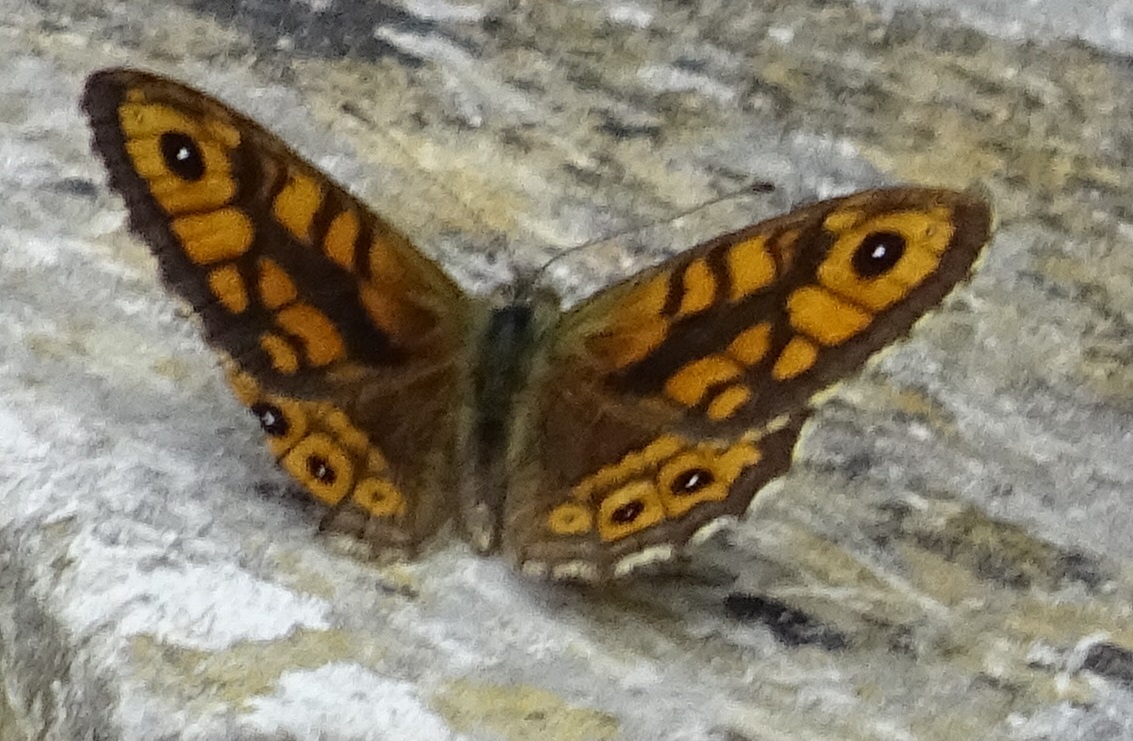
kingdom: Animalia
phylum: Arthropoda
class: Insecta
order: Lepidoptera
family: Nymphalidae
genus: Pararge
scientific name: Pararge Lasiommata megera
